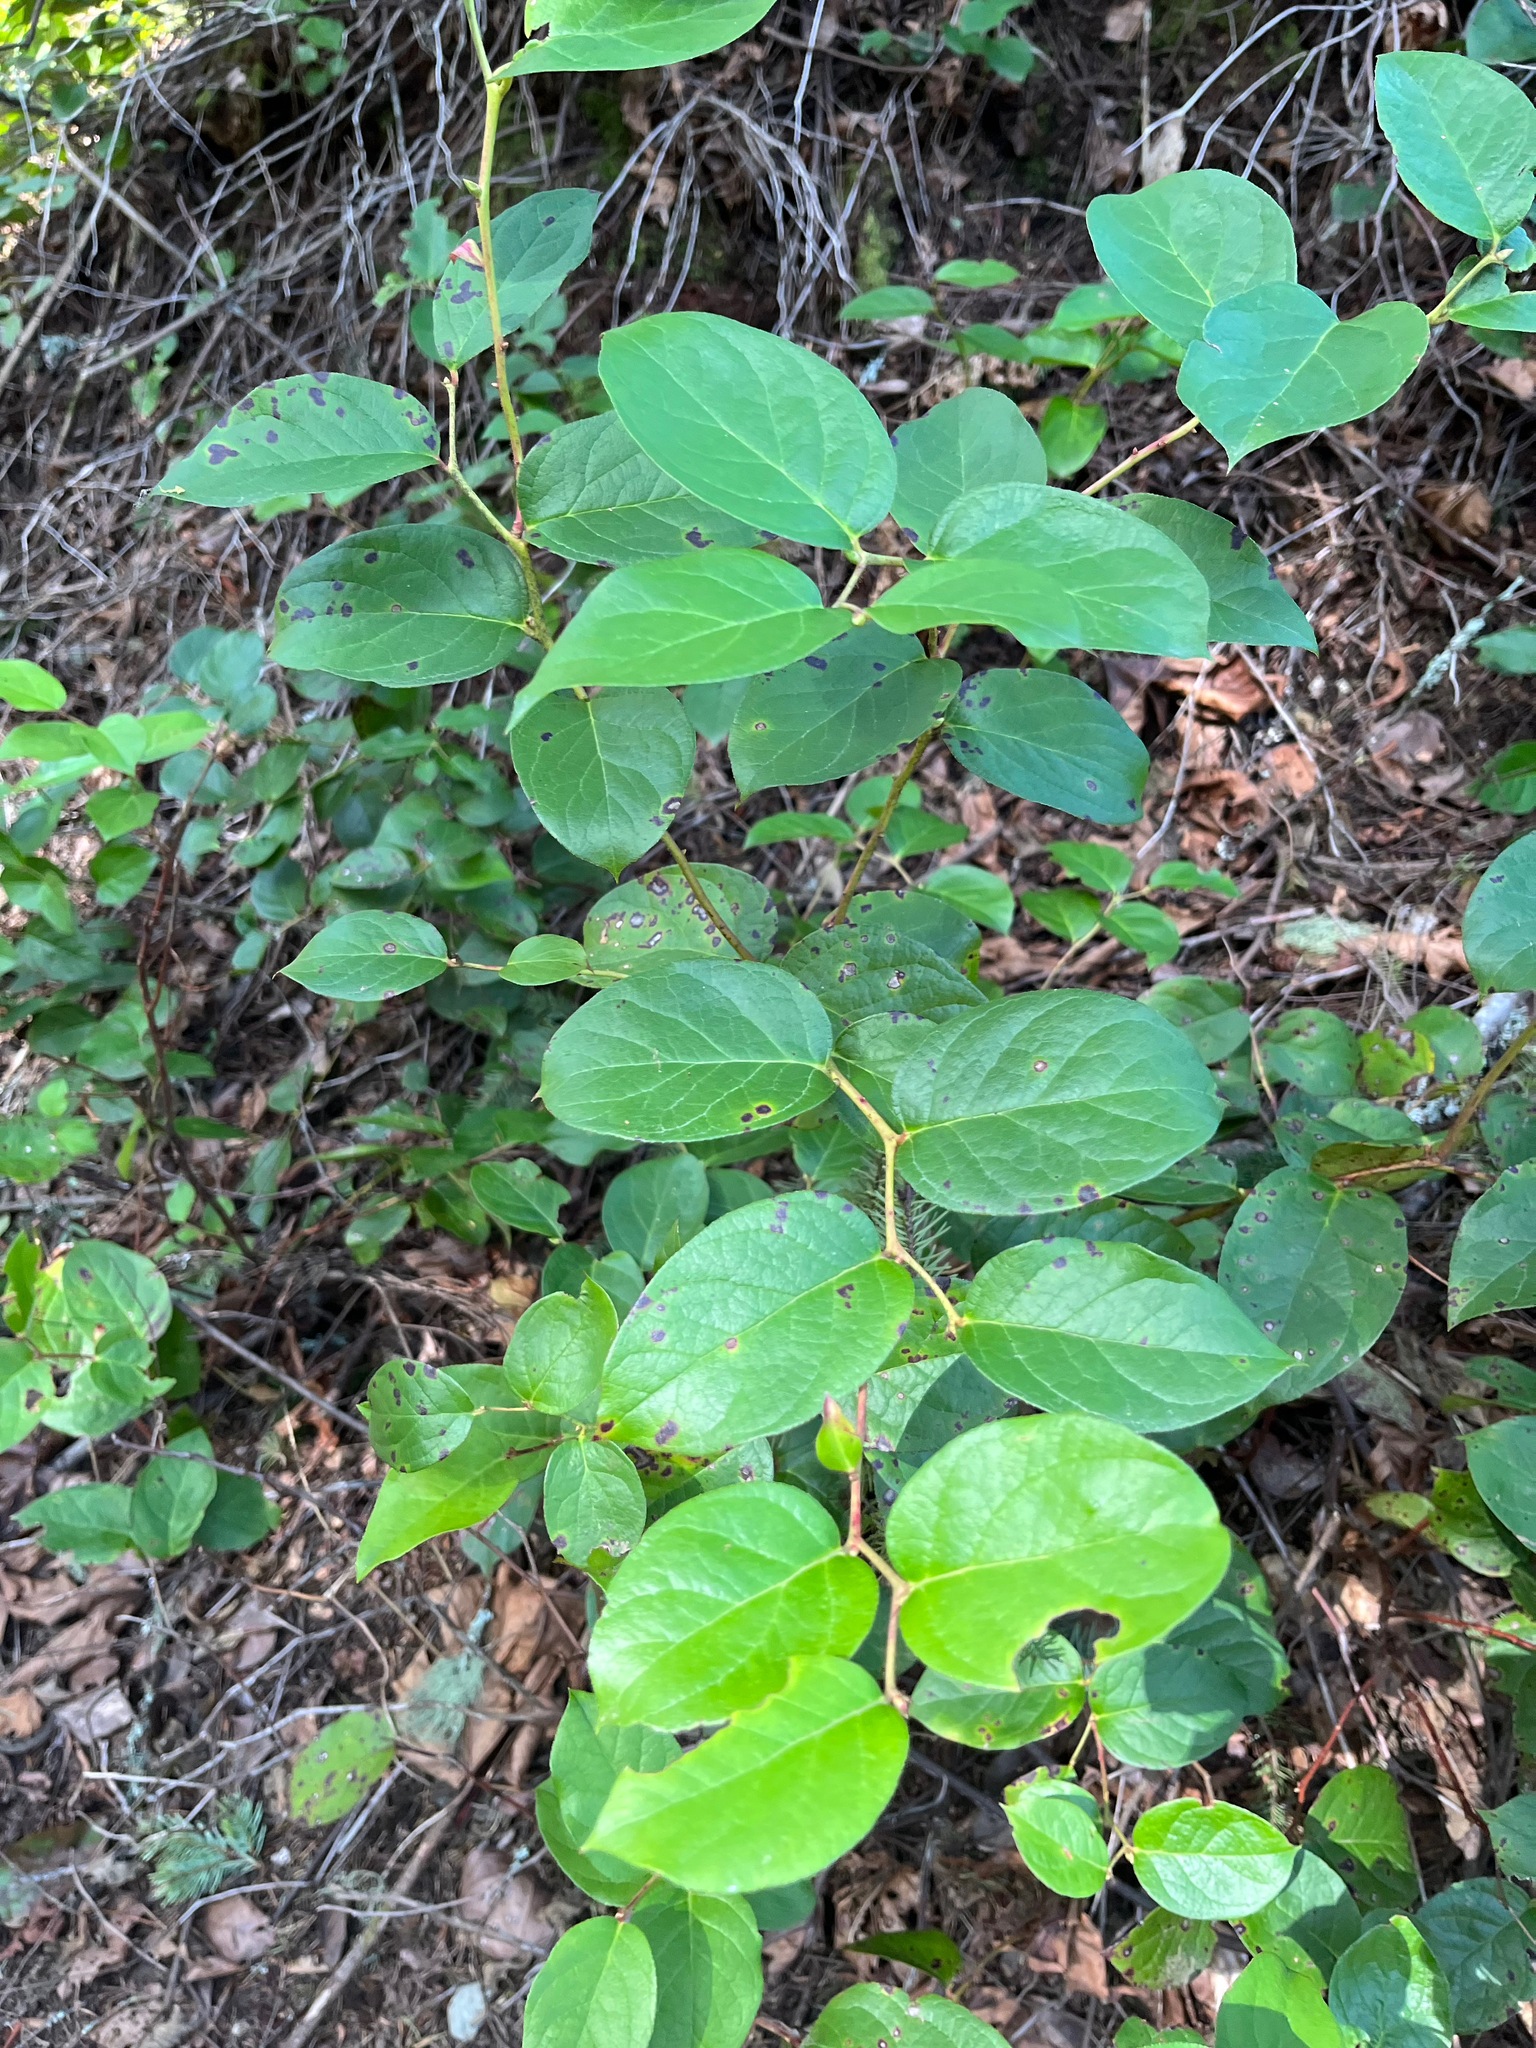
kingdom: Plantae
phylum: Tracheophyta
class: Magnoliopsida
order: Ericales
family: Ericaceae
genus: Gaultheria
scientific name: Gaultheria shallon
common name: Shallon
